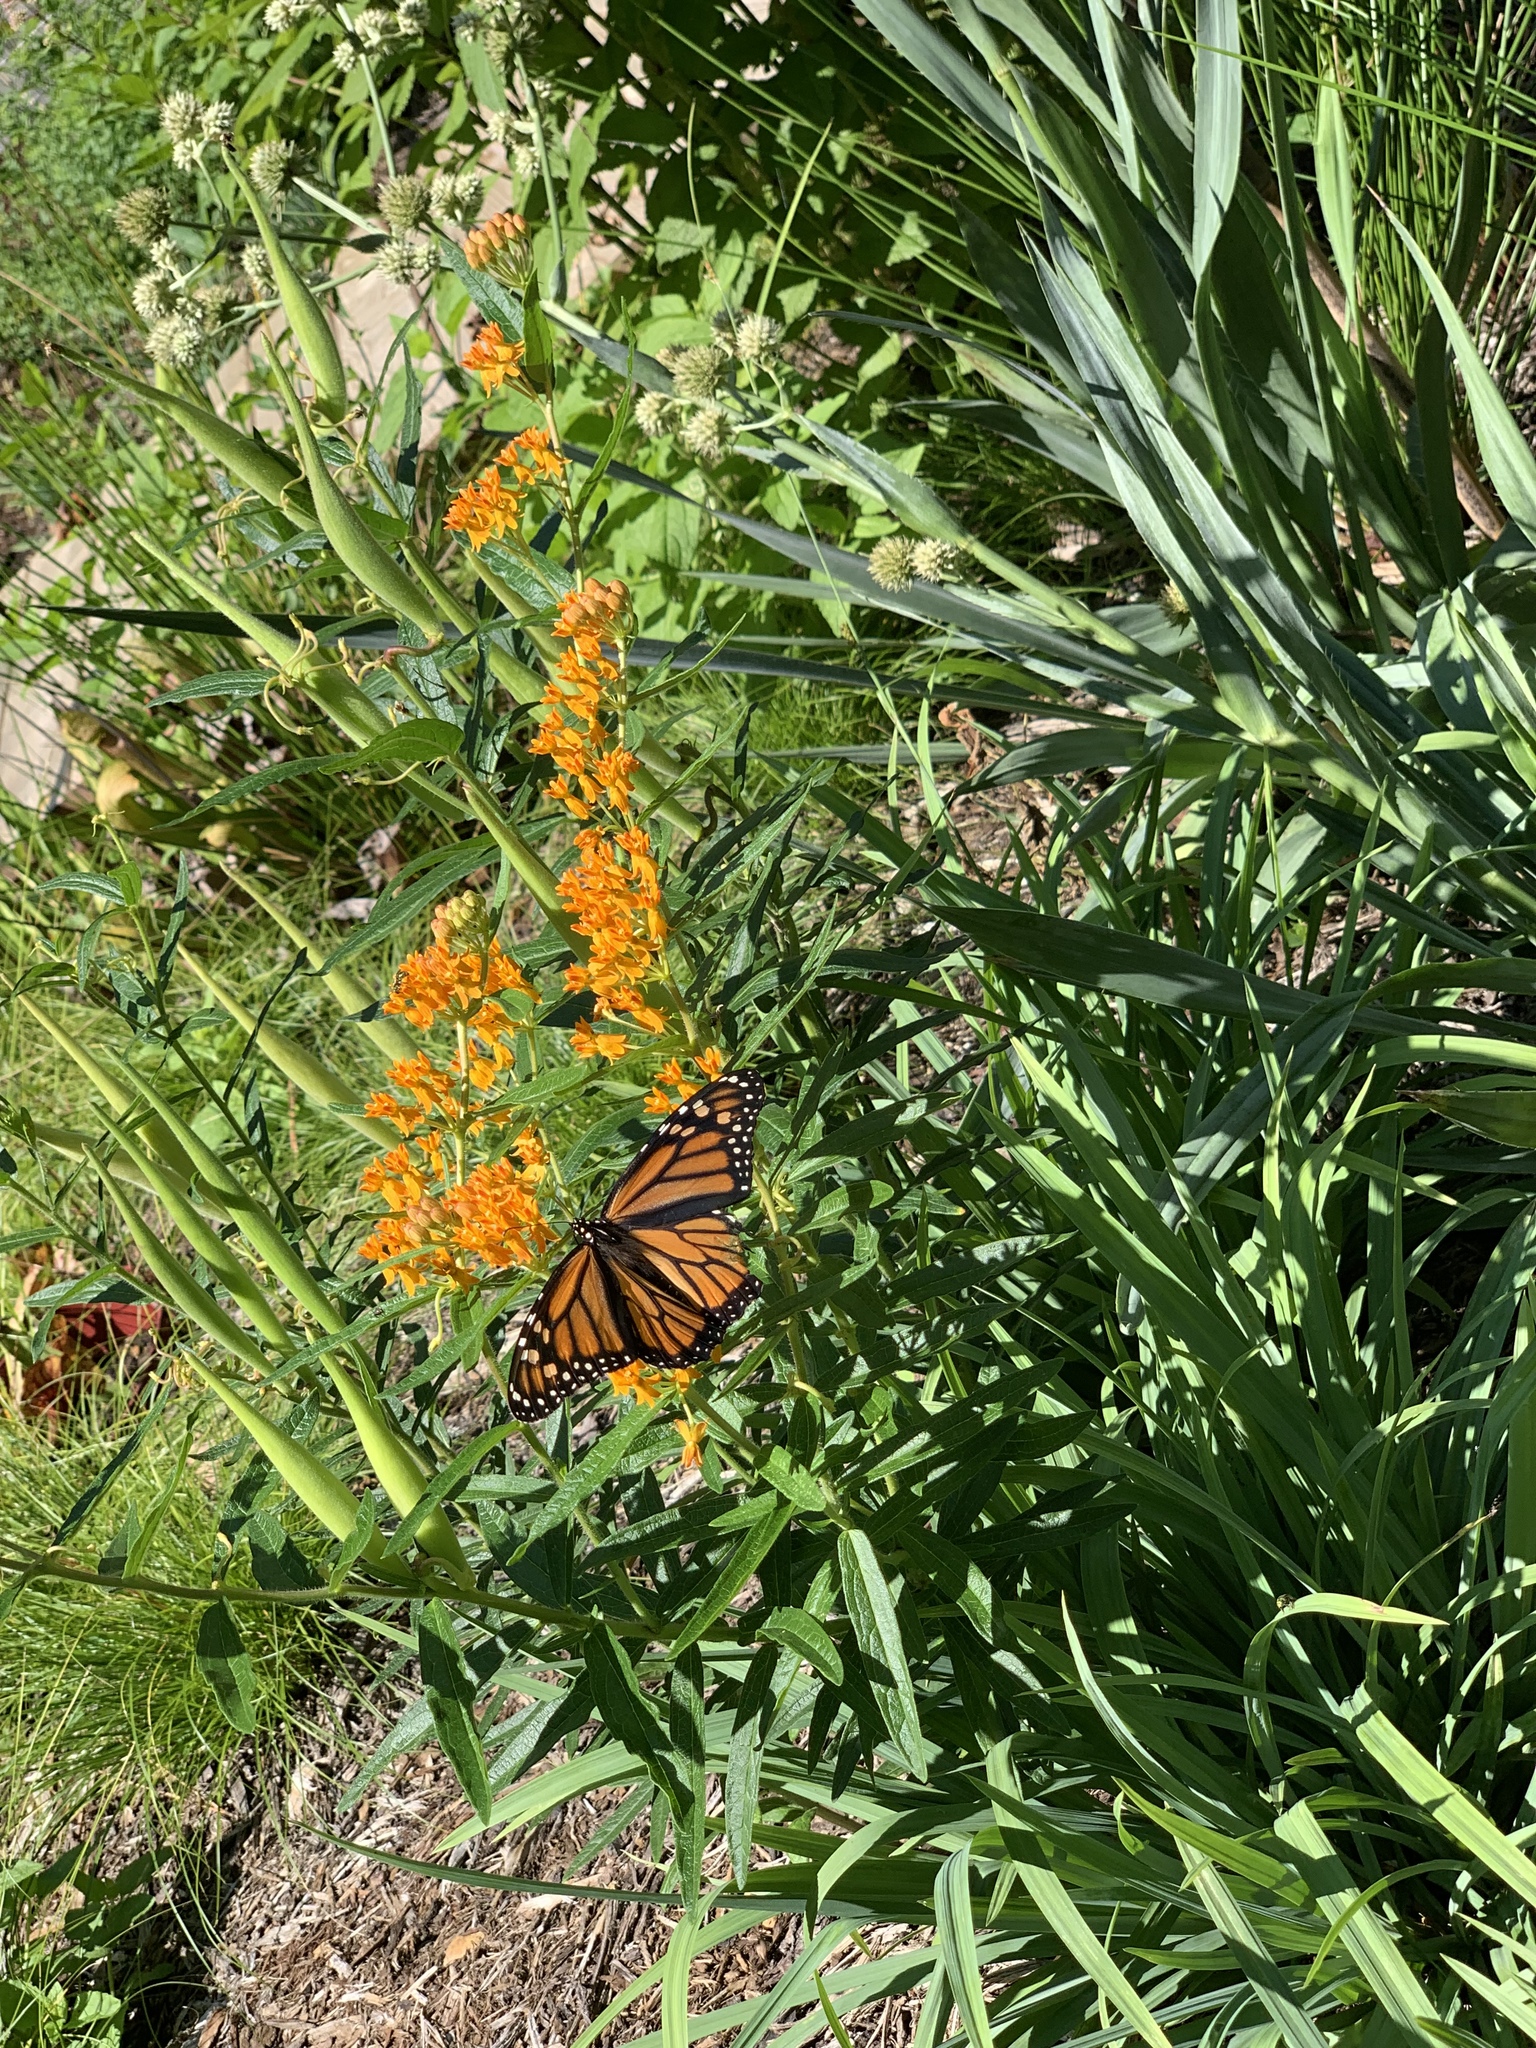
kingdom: Animalia
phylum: Arthropoda
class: Insecta
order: Lepidoptera
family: Nymphalidae
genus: Danaus
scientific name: Danaus plexippus
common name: Monarch
